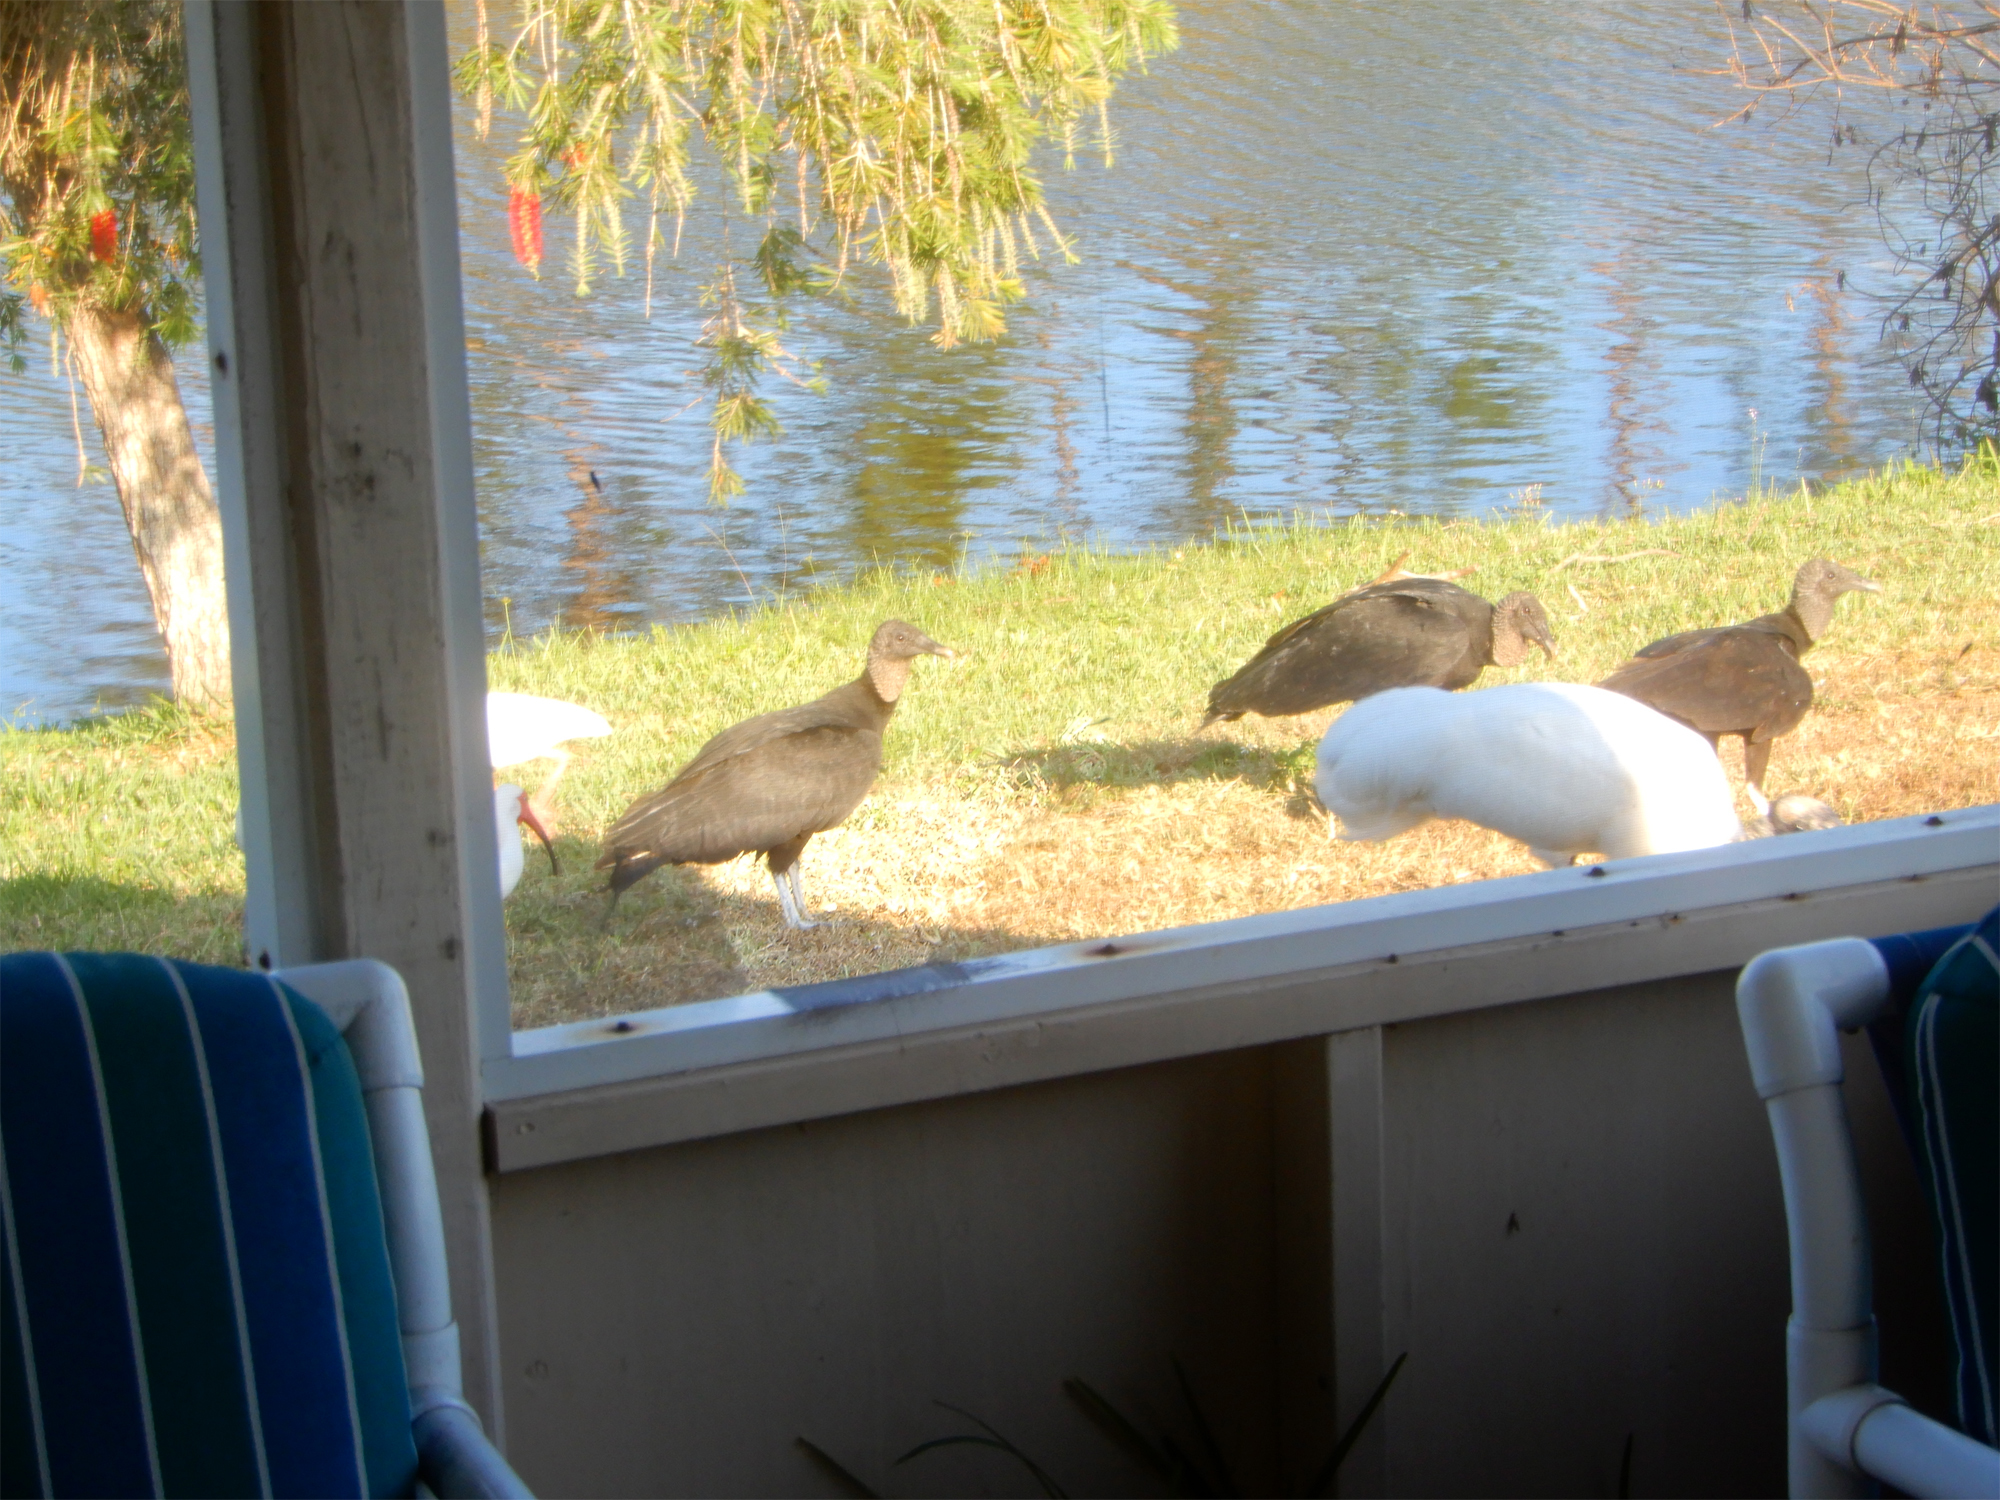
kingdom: Animalia
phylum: Chordata
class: Aves
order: Ciconiiformes
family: Ciconiidae
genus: Mycteria
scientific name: Mycteria americana
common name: Wood stork
